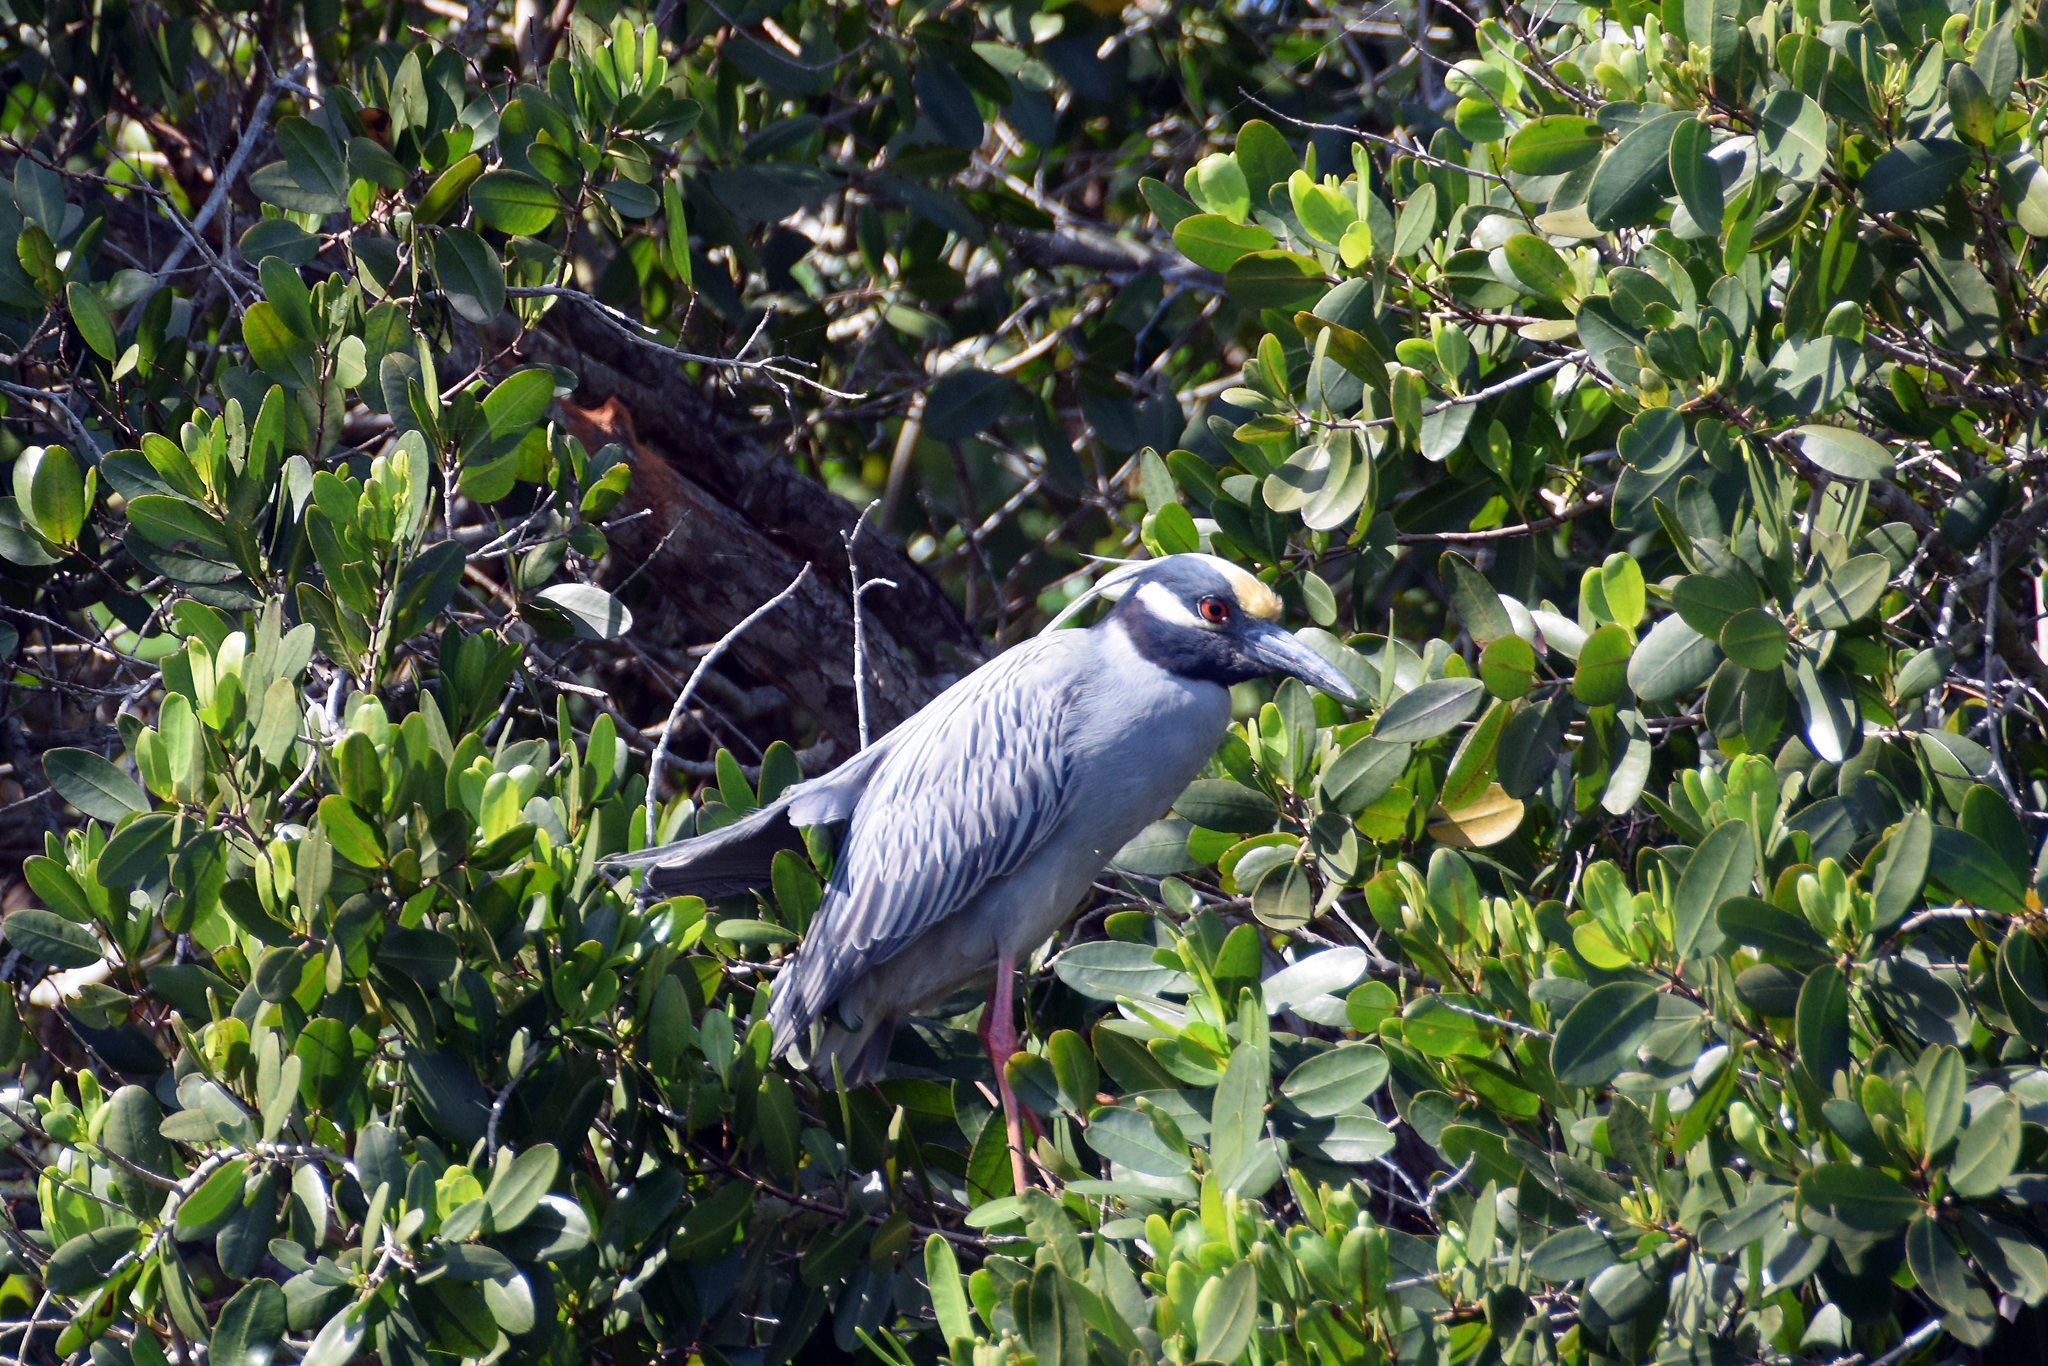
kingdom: Animalia
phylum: Chordata
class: Aves
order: Pelecaniformes
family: Ardeidae
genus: Nyctanassa
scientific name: Nyctanassa violacea
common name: Yellow-crowned night heron
